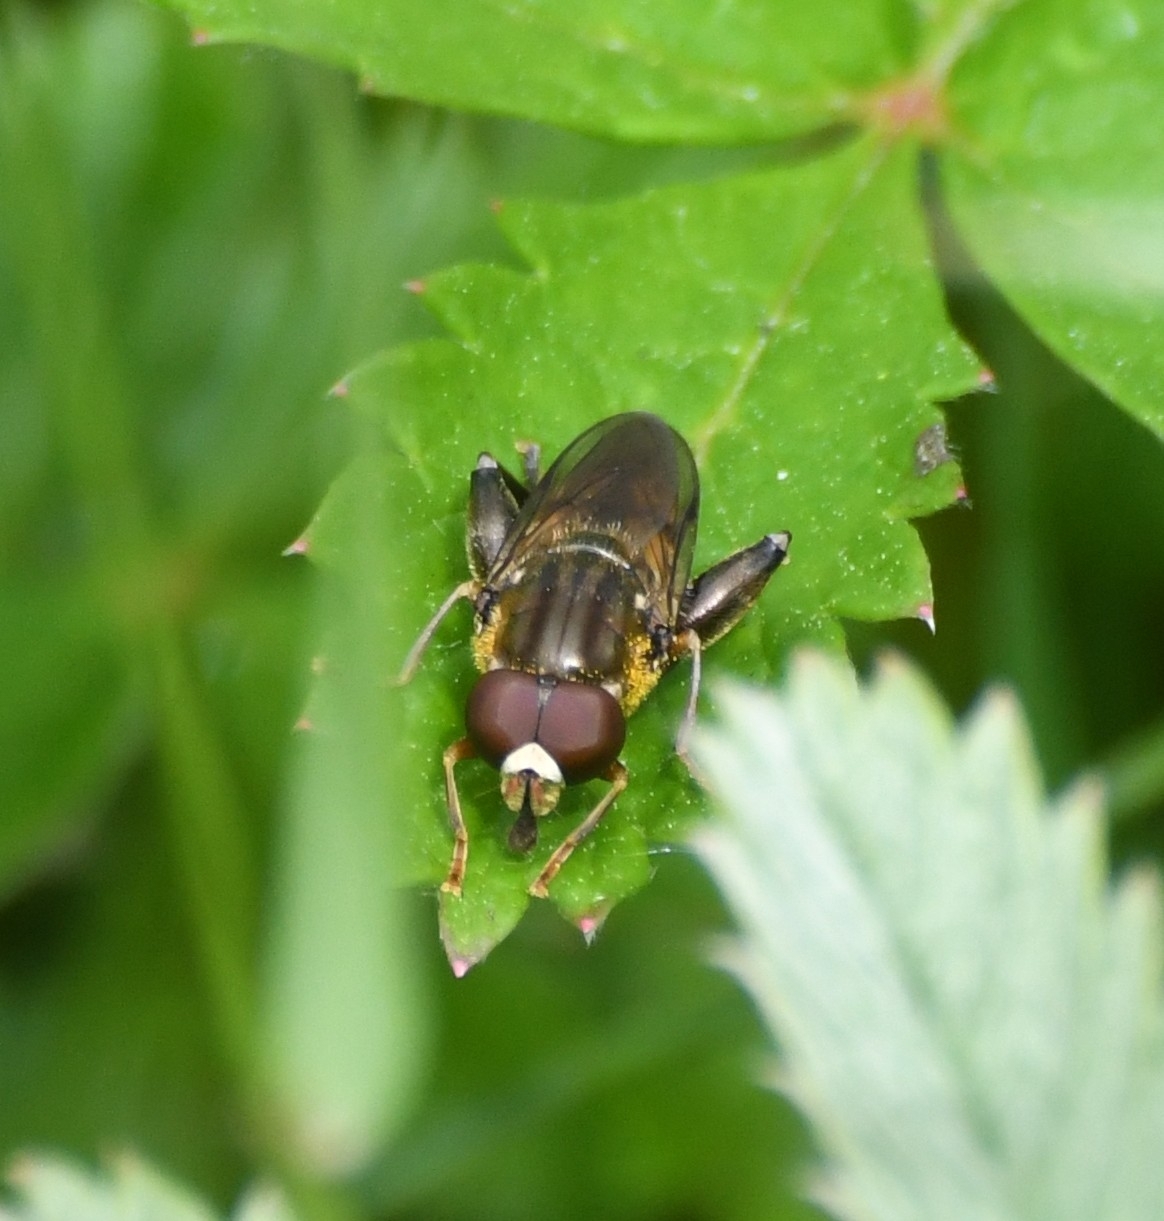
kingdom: Animalia
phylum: Arthropoda
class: Insecta
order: Diptera
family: Syrphidae
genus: Tropidia
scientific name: Tropidia quadrata
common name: Common thick-legged fly
